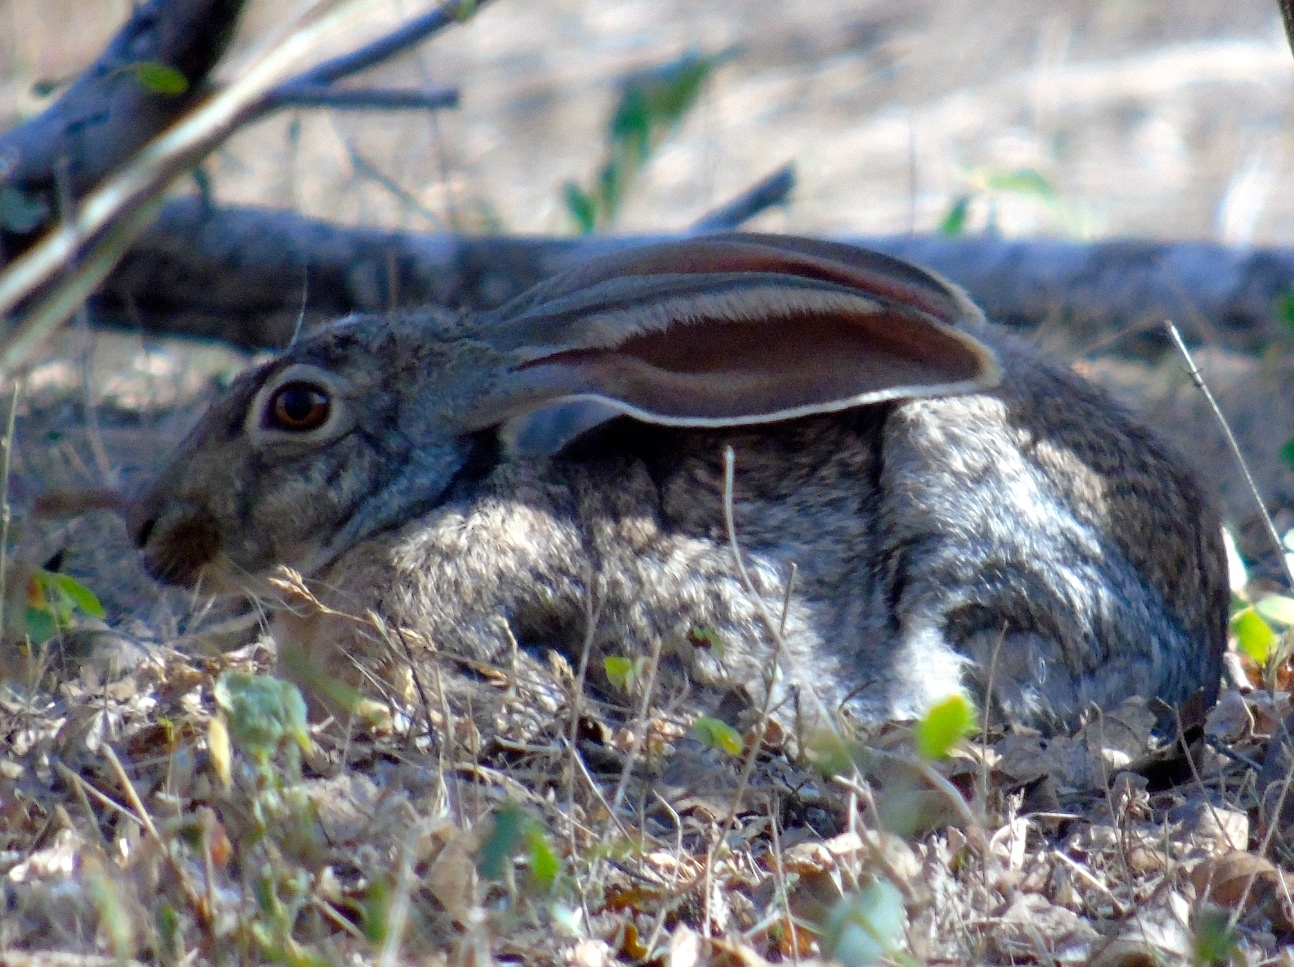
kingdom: Animalia
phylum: Chordata
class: Mammalia
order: Lagomorpha
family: Leporidae
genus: Lepus
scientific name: Lepus alleni
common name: Antelope jackrabbit
